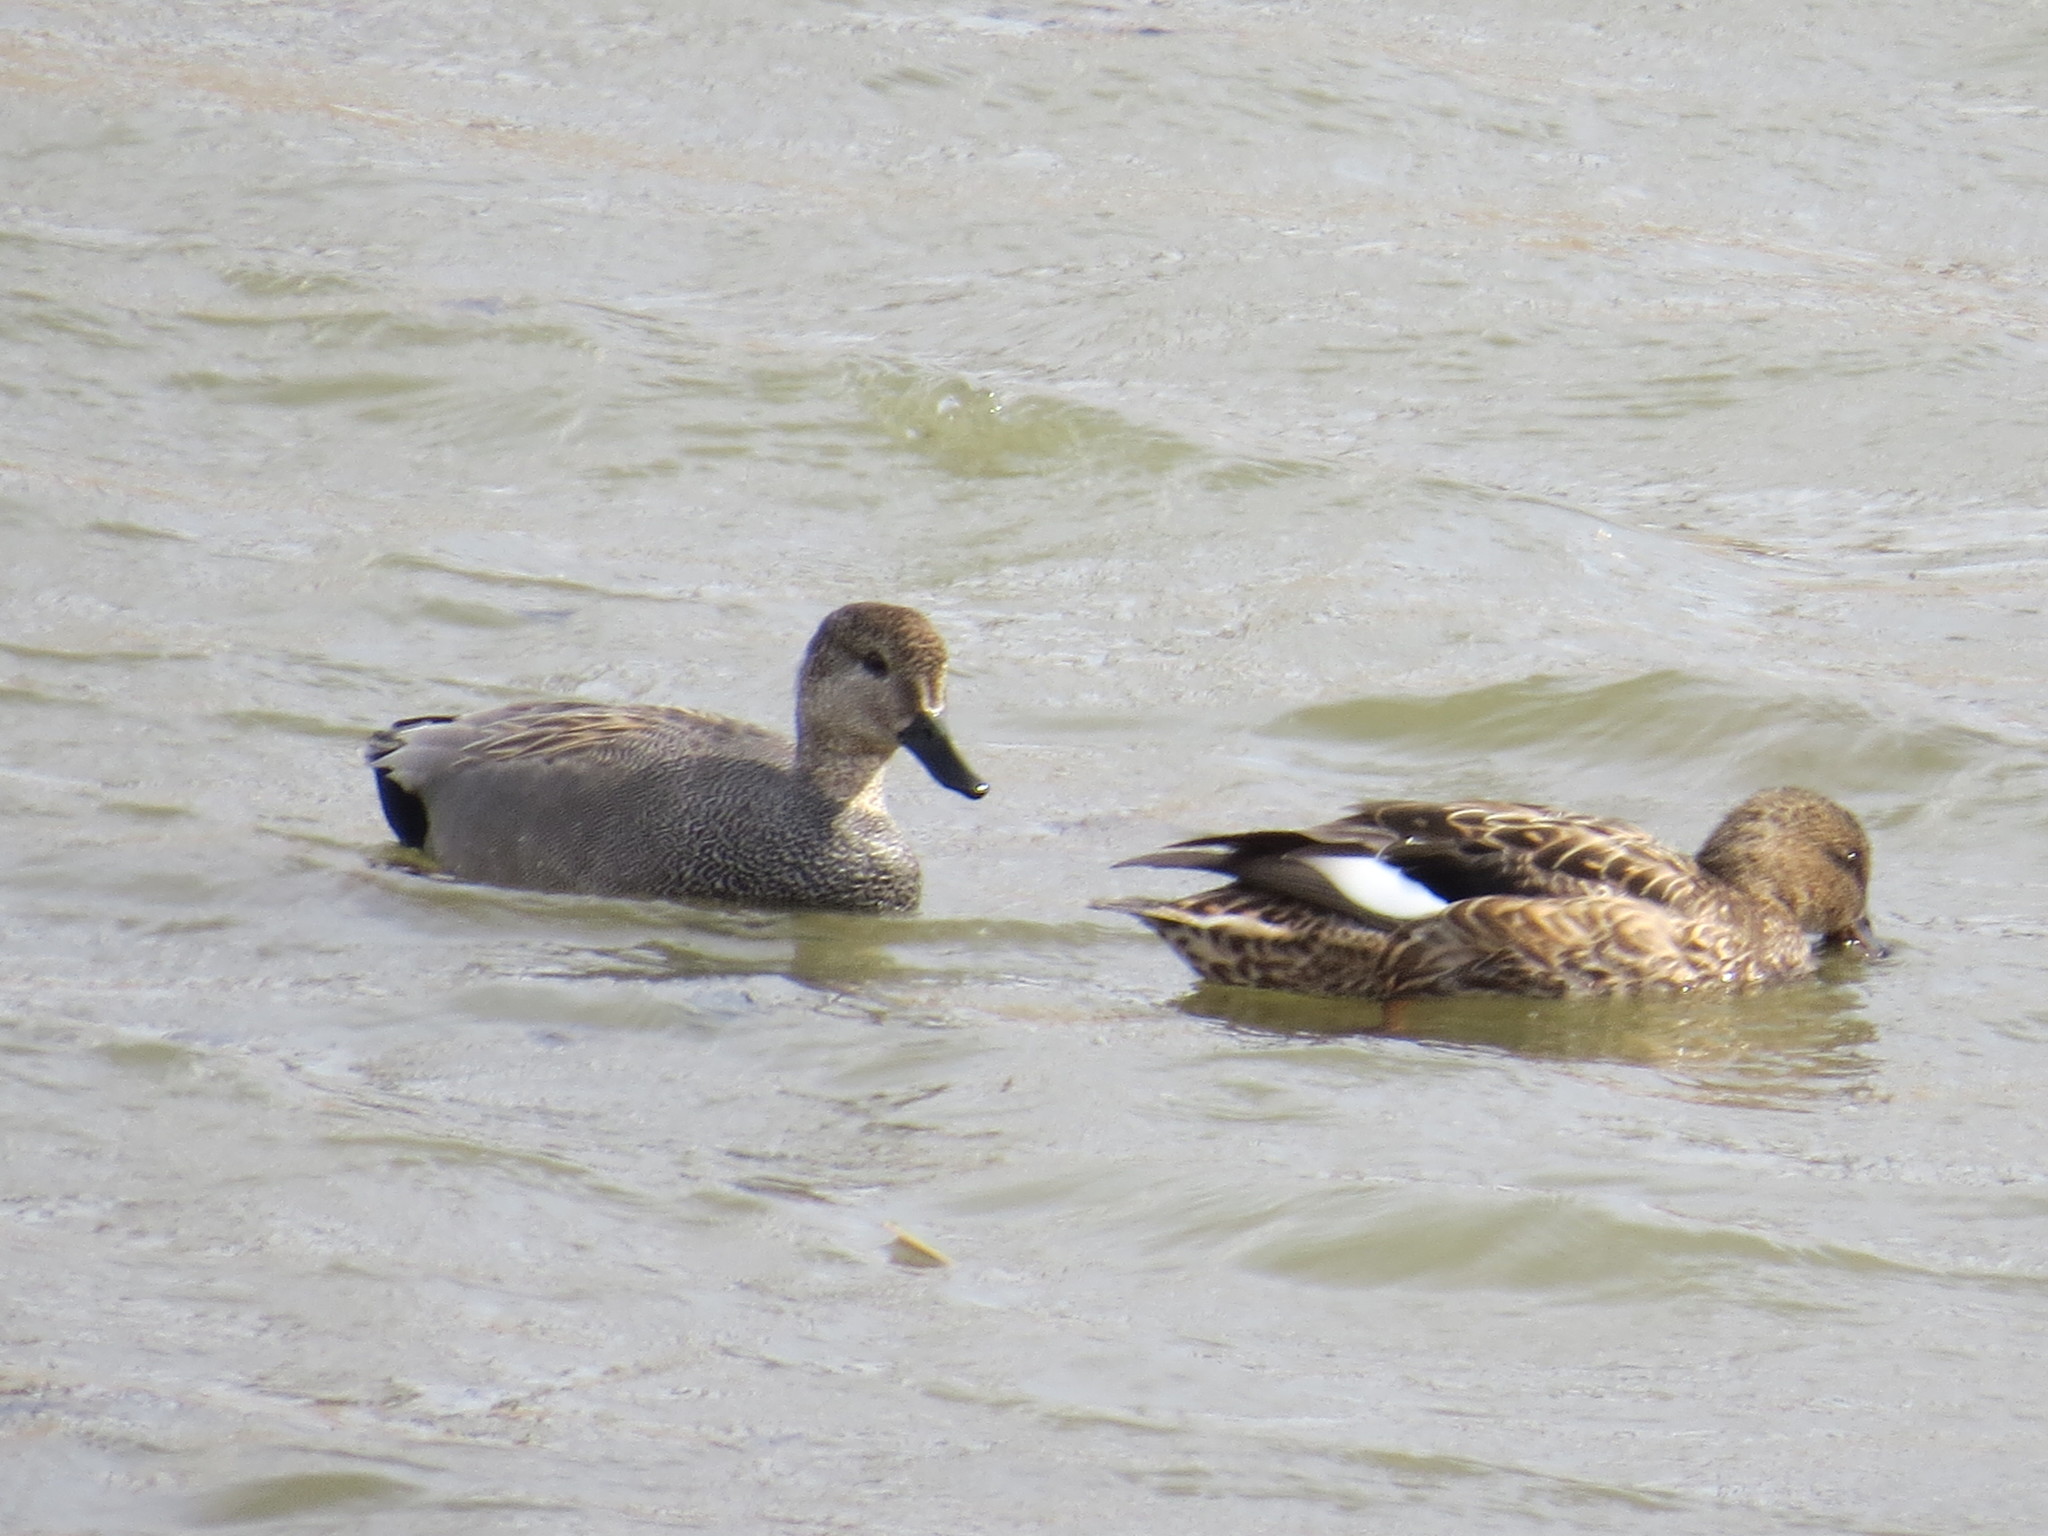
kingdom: Animalia
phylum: Chordata
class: Aves
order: Anseriformes
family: Anatidae
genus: Mareca
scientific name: Mareca strepera
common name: Gadwall
